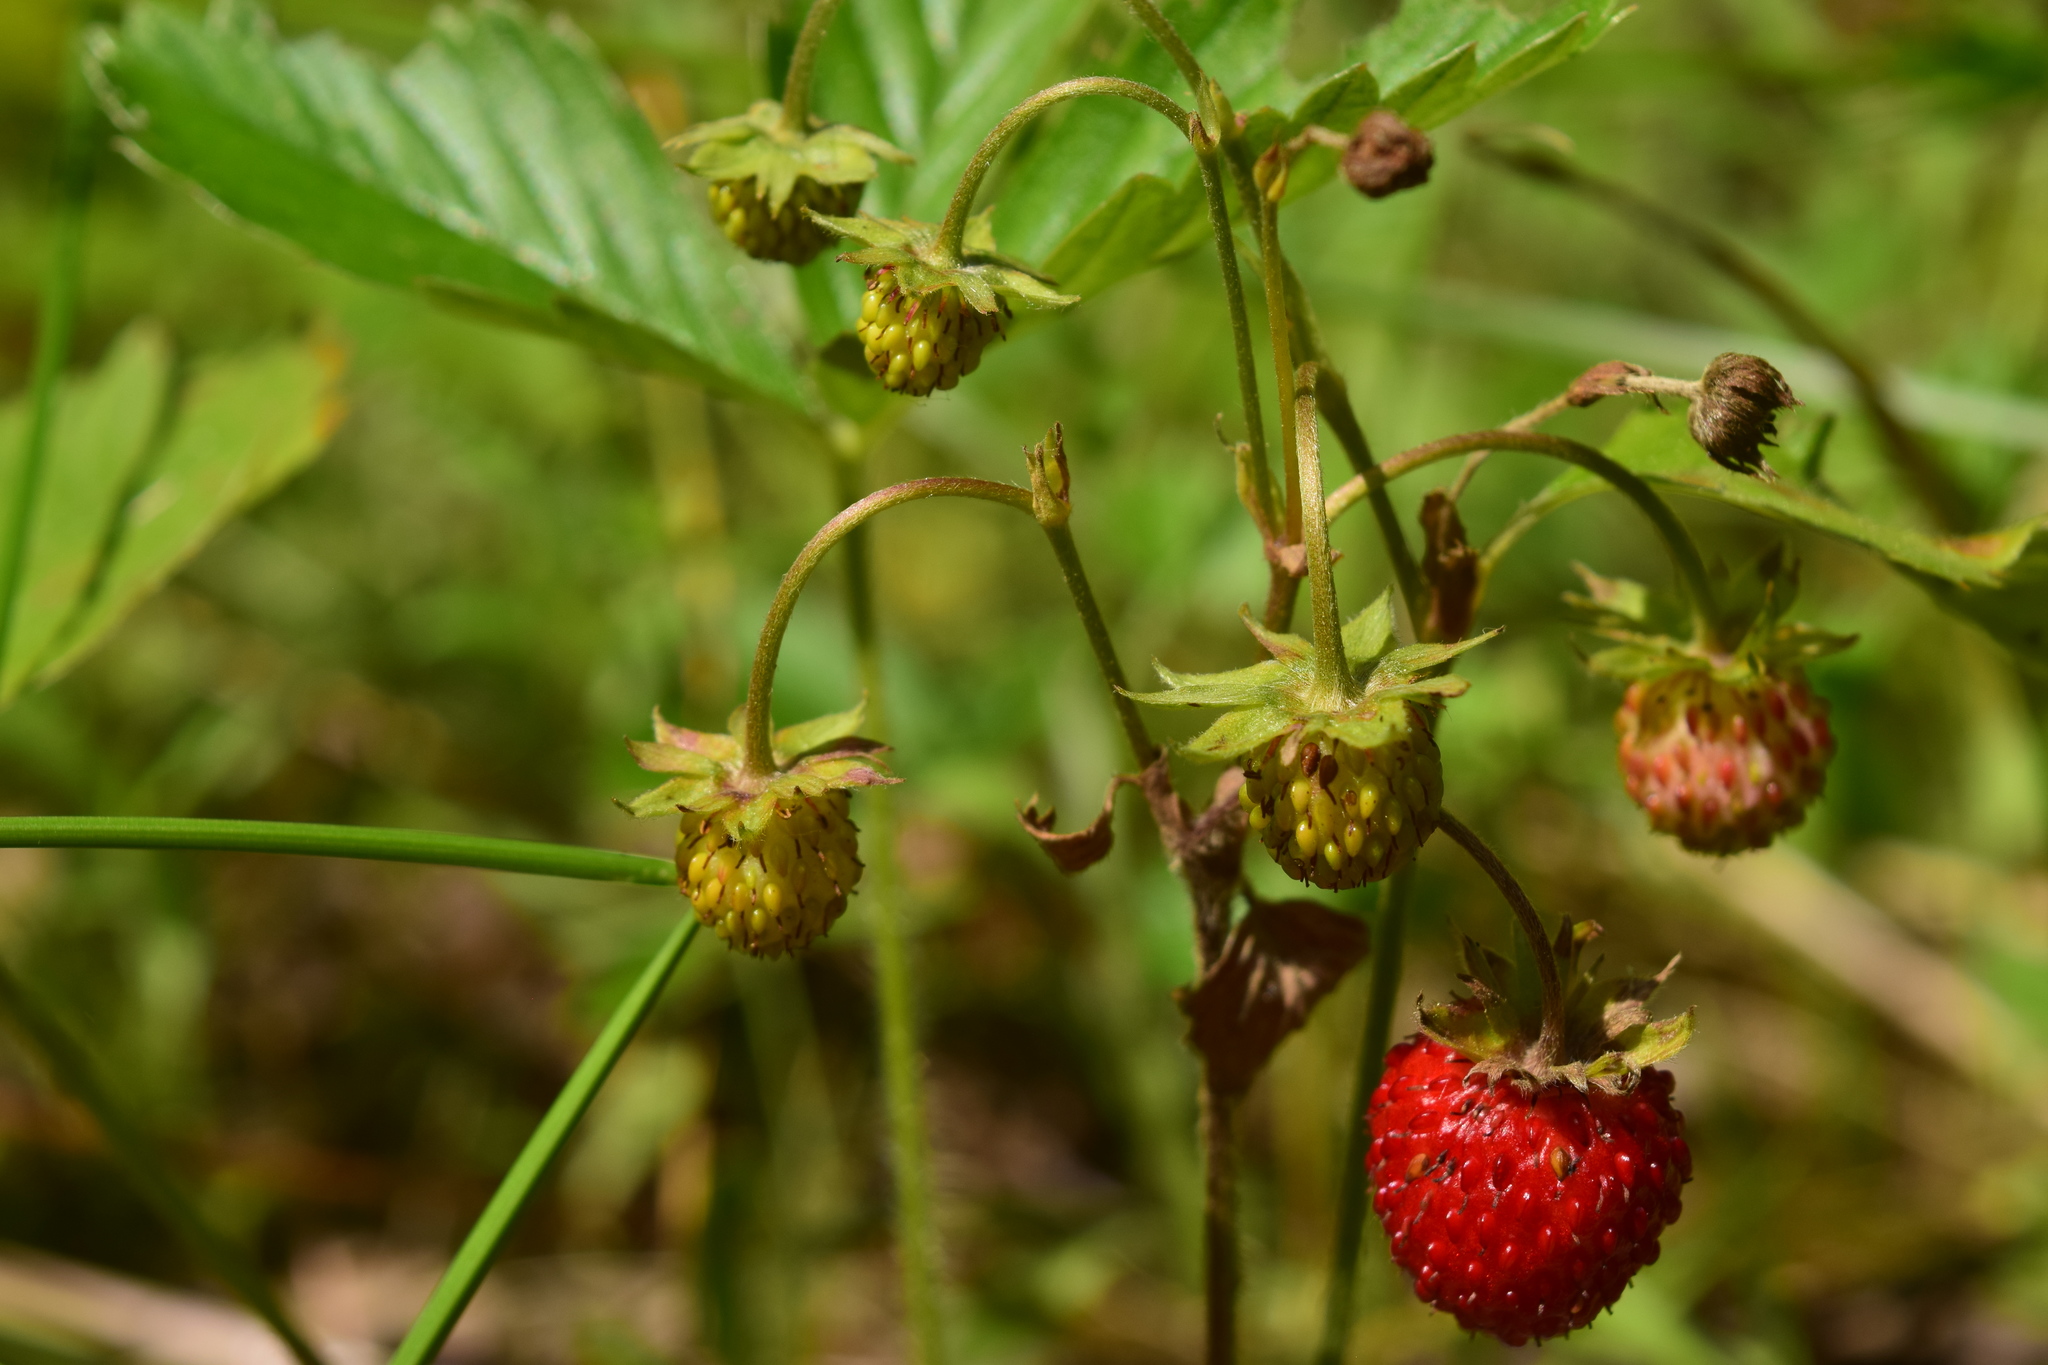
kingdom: Plantae
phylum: Tracheophyta
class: Magnoliopsida
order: Rosales
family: Rosaceae
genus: Fragaria
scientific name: Fragaria vesca
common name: Wild strawberry
